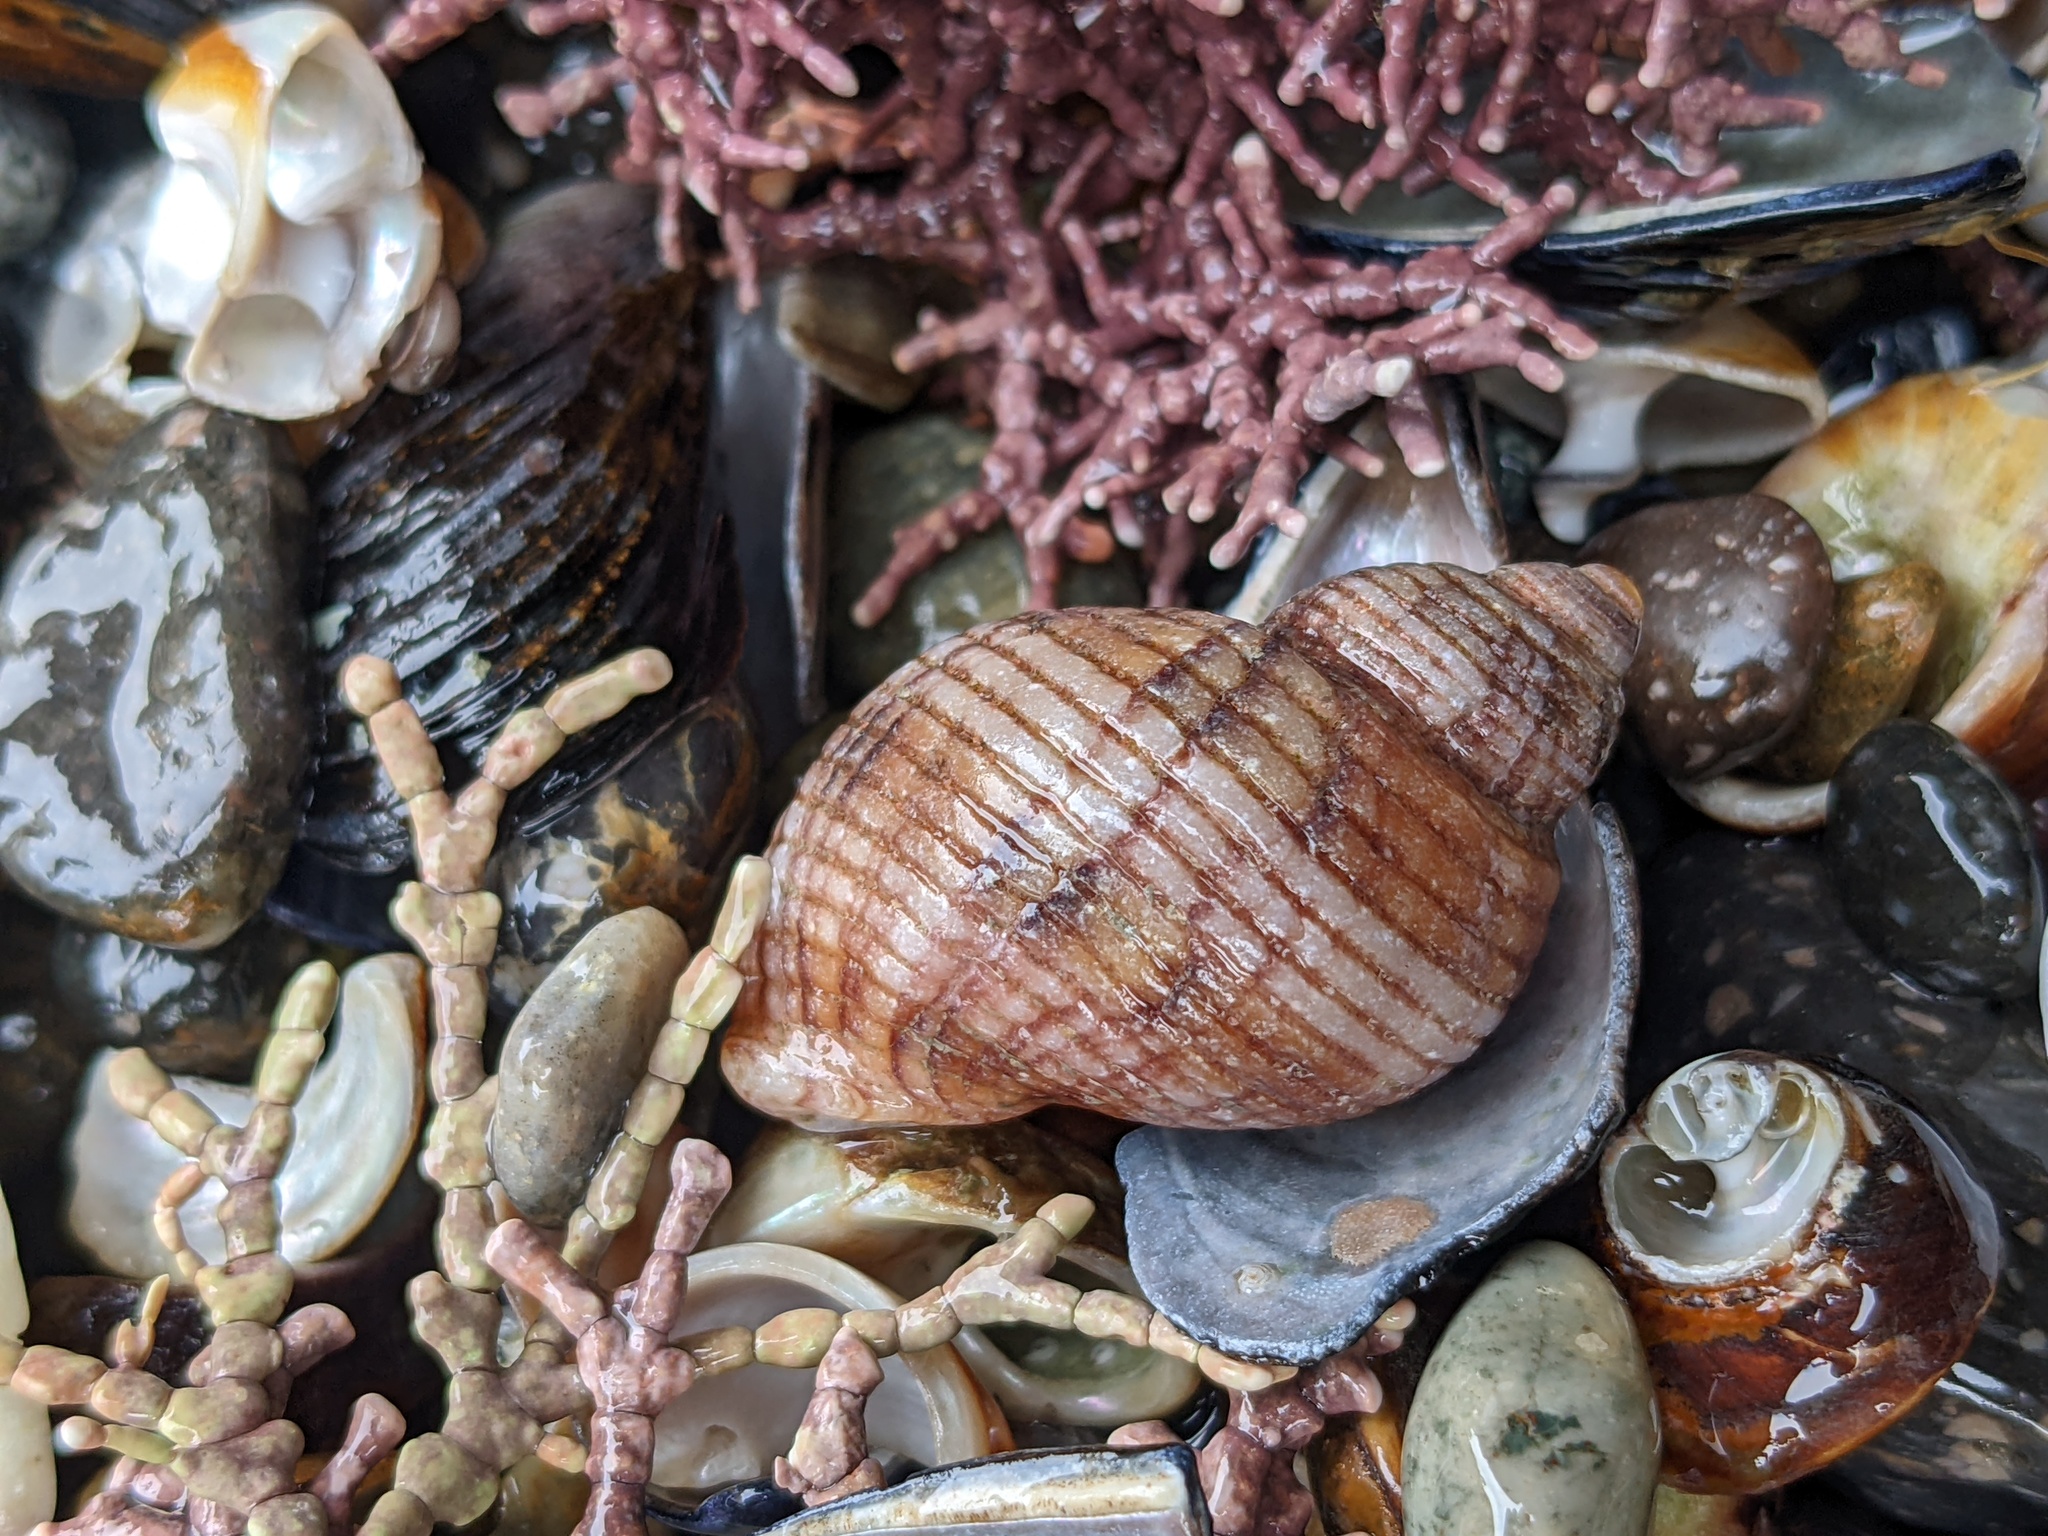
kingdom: Animalia
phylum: Mollusca
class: Gastropoda
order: Neogastropoda
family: Muricidae
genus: Nucella
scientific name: Nucella canaliculata
